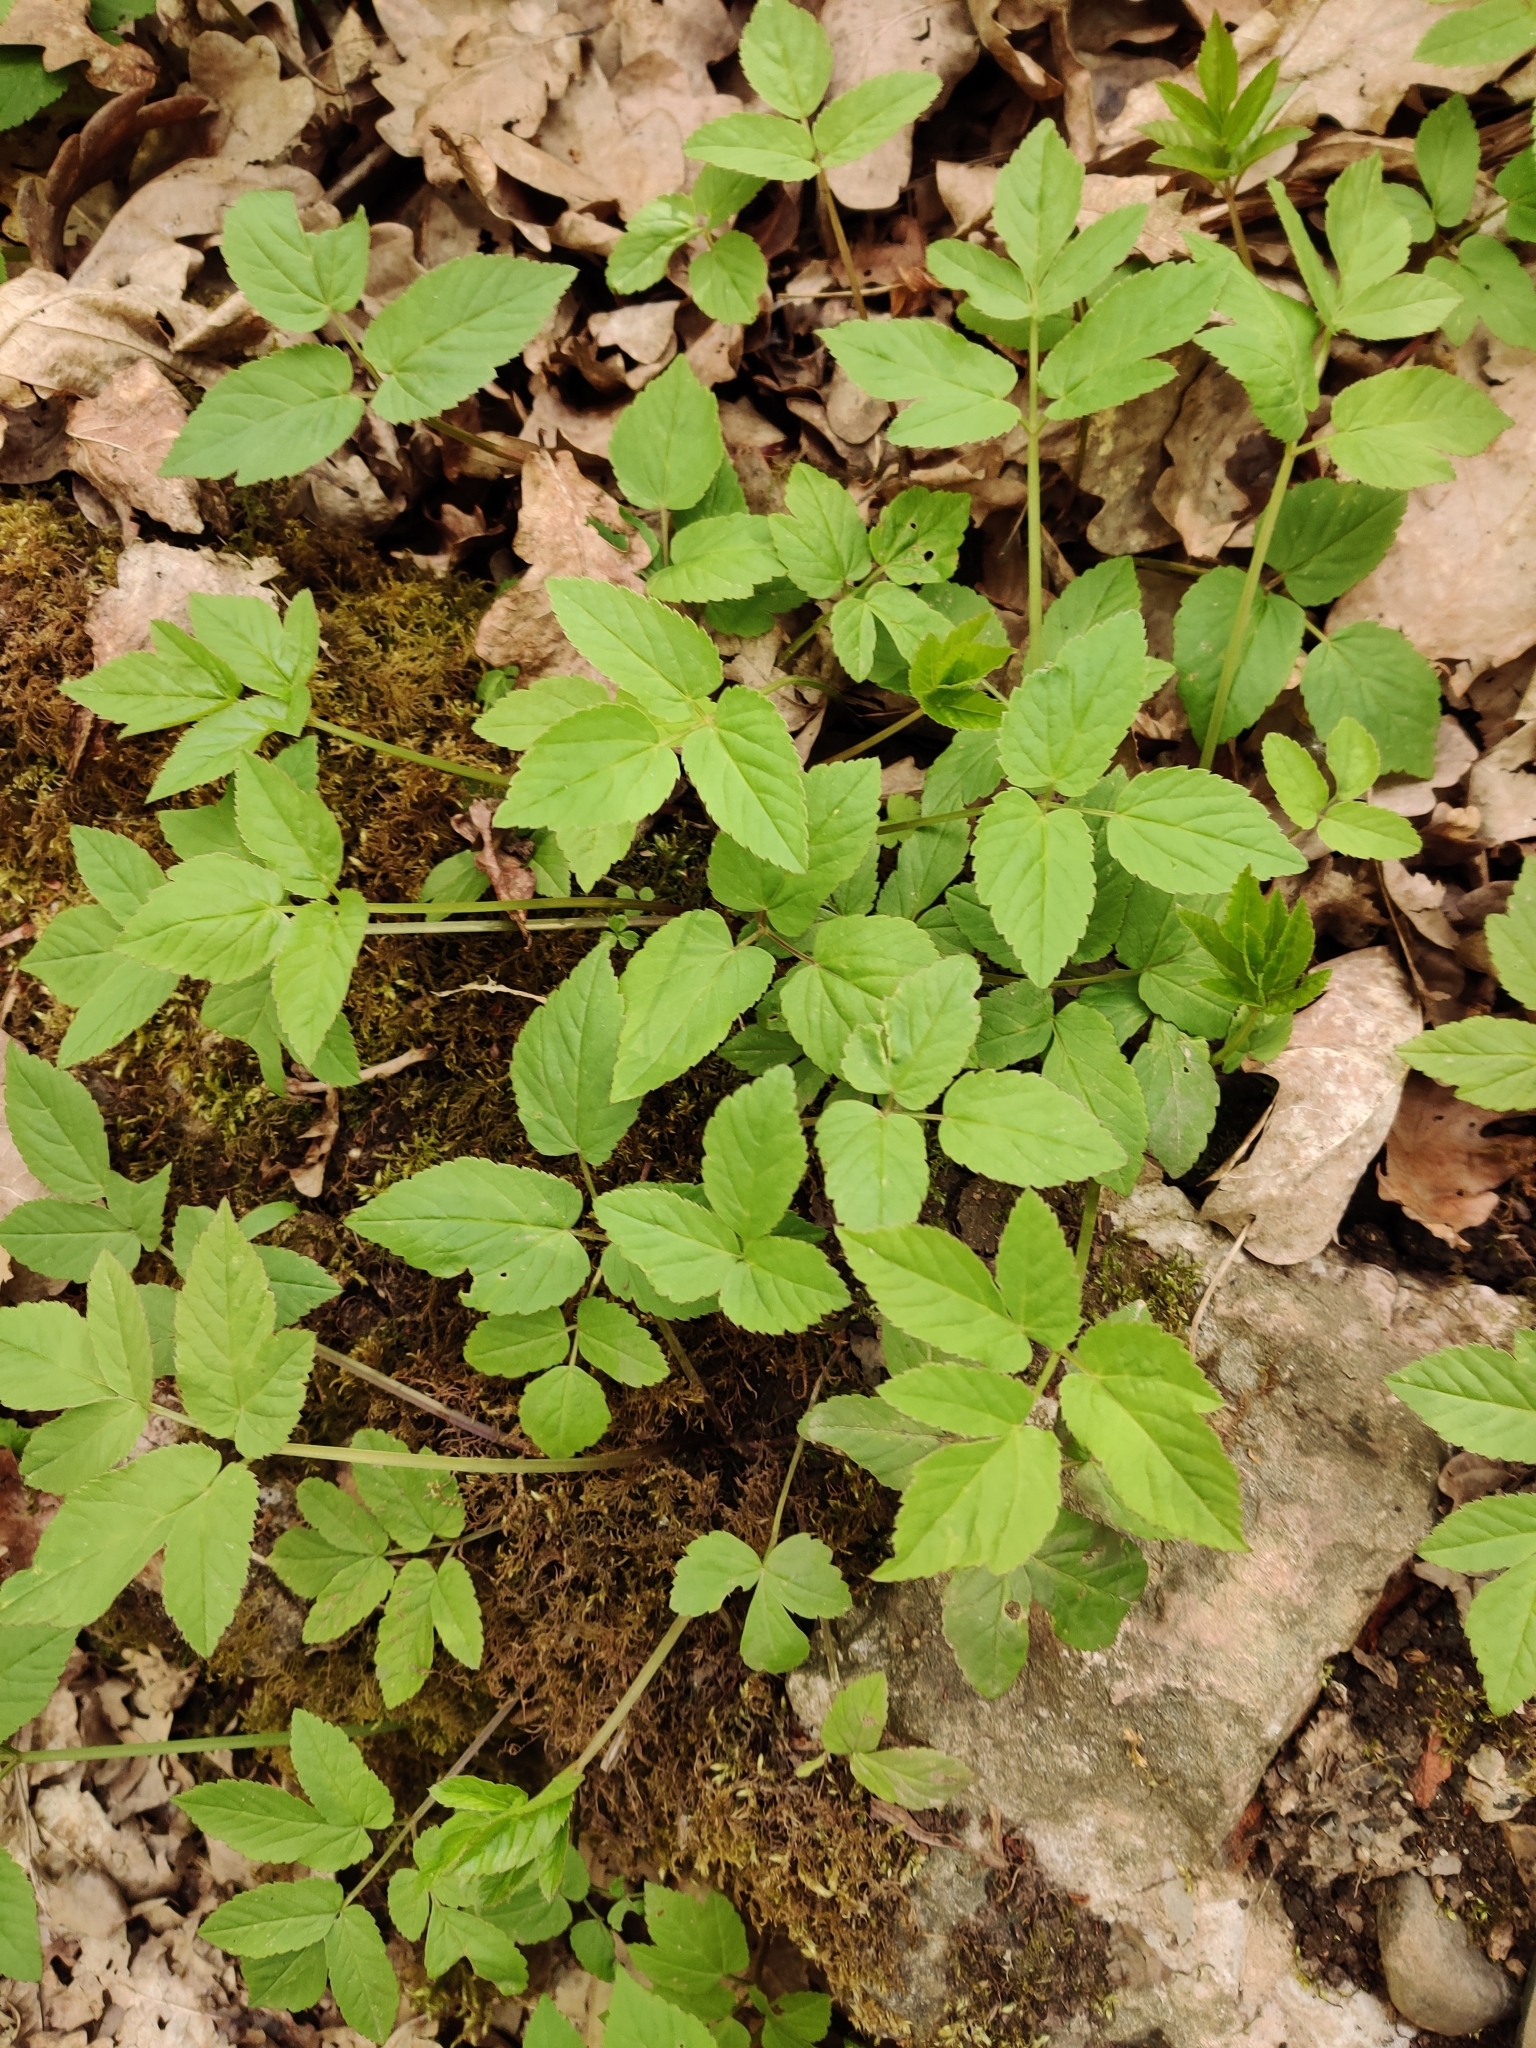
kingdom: Plantae
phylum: Tracheophyta
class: Magnoliopsida
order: Apiales
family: Apiaceae
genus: Aegopodium
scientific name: Aegopodium podagraria
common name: Ground-elder
